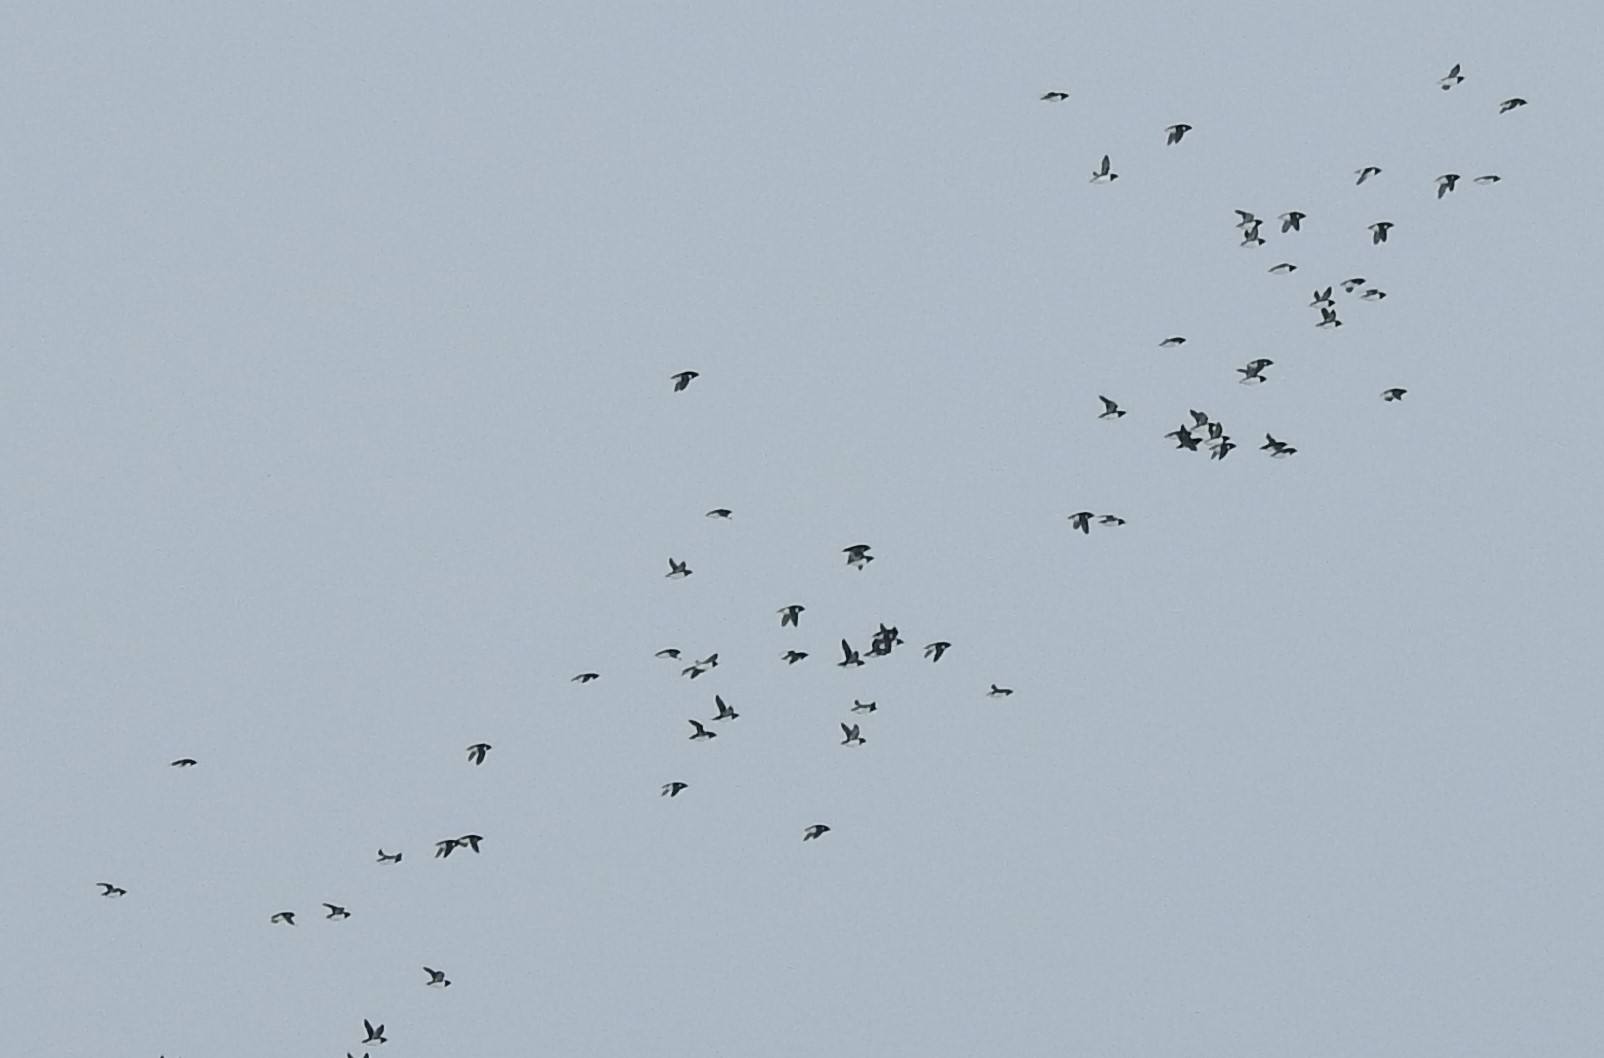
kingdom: Animalia
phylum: Chordata
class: Aves
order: Charadriiformes
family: Alcidae
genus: Alle
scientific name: Alle alle
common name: Little auk
